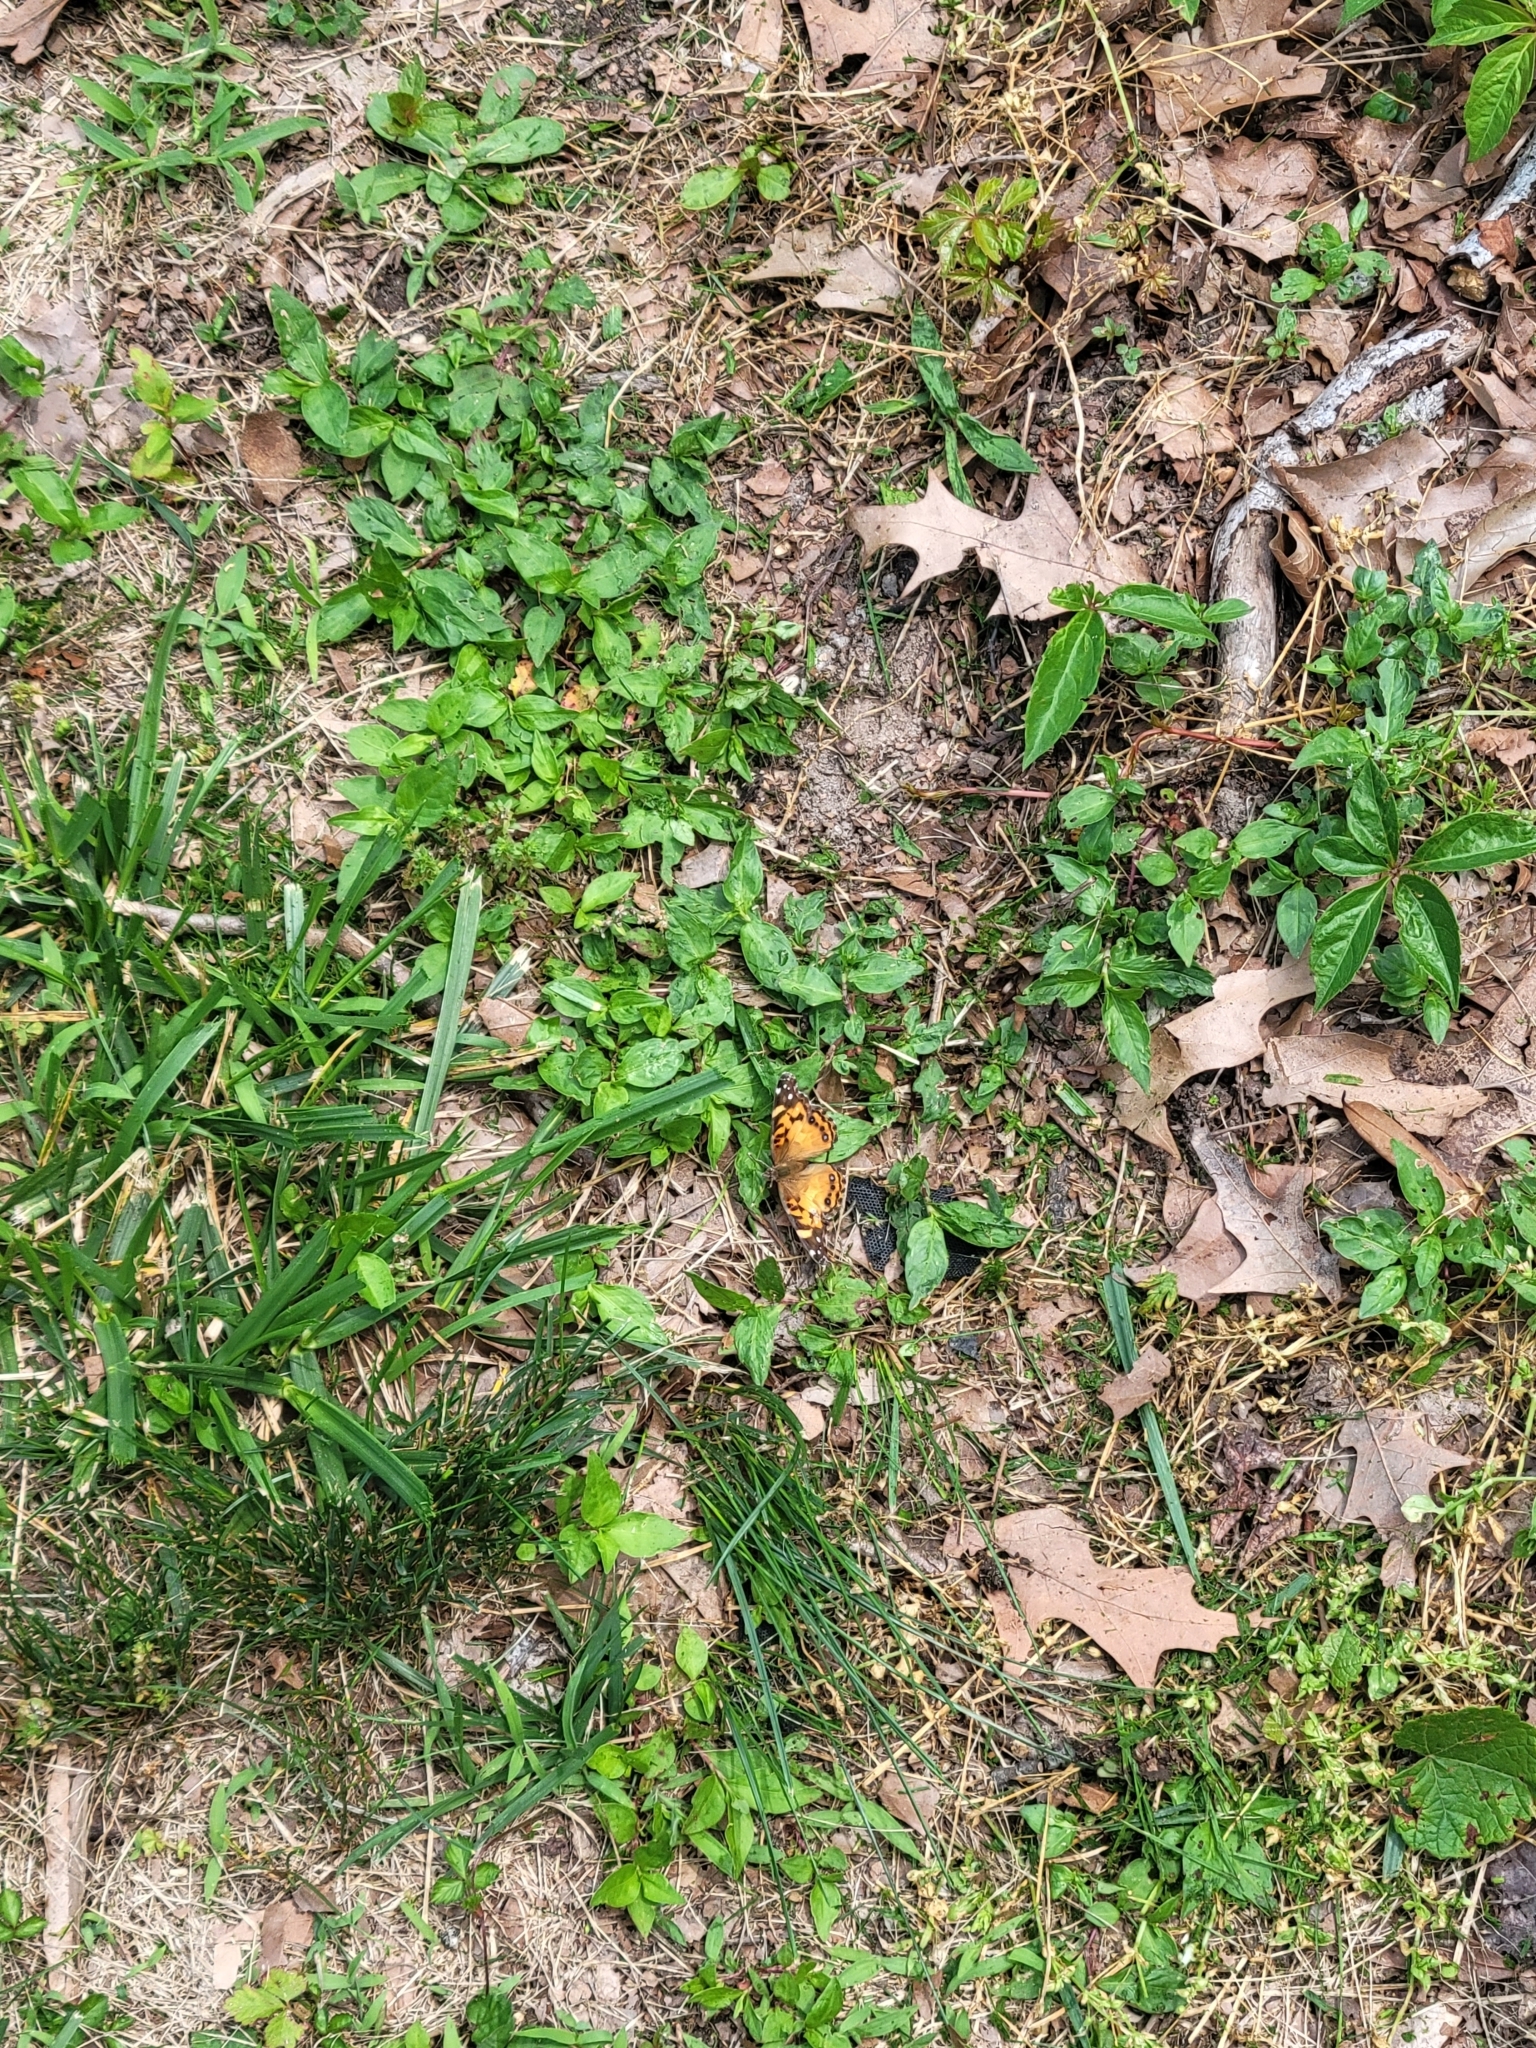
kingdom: Animalia
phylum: Arthropoda
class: Insecta
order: Lepidoptera
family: Nymphalidae
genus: Vanessa
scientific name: Vanessa virginiensis
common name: American lady
